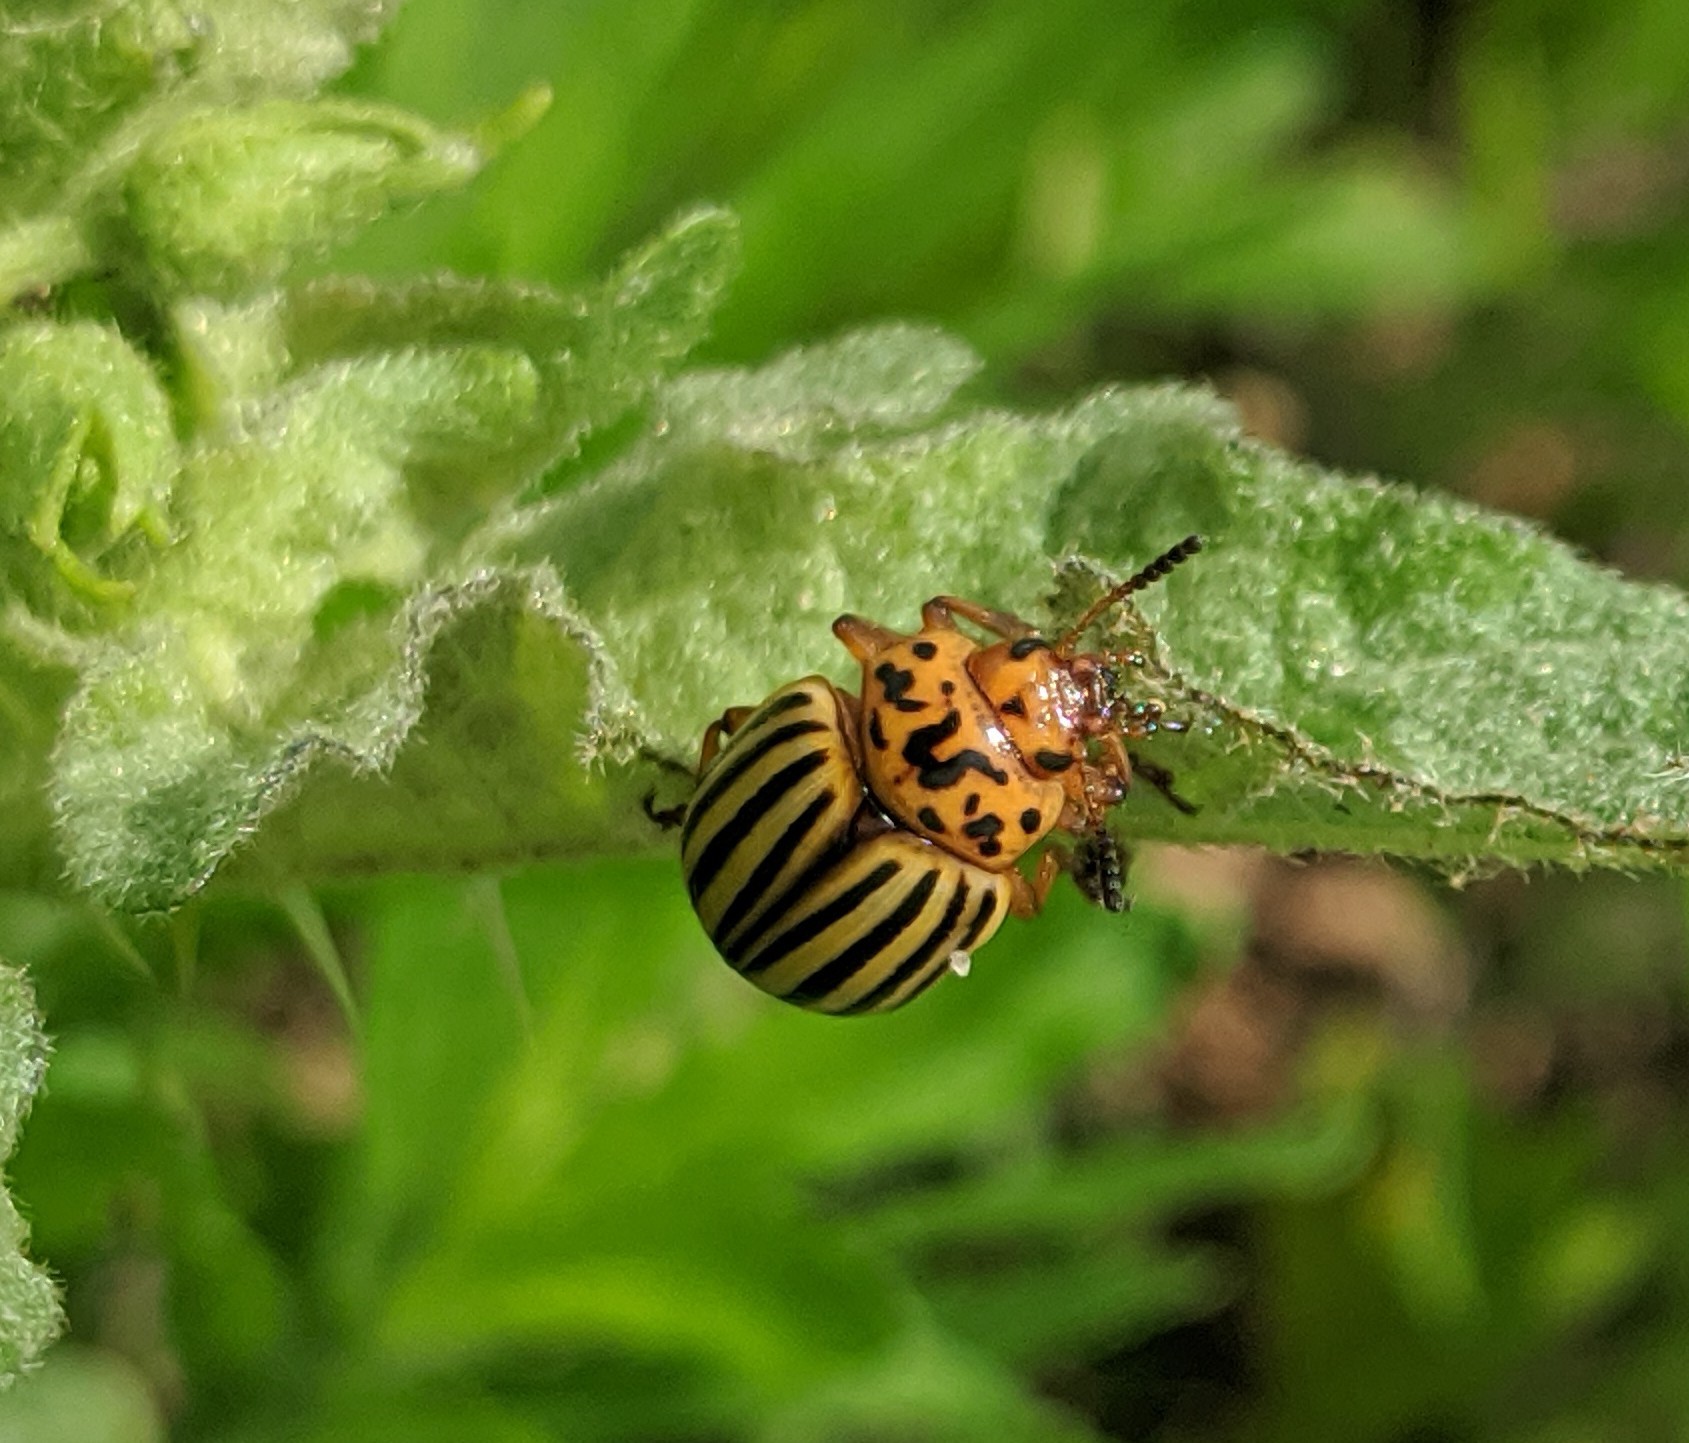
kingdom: Animalia
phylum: Arthropoda
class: Insecta
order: Coleoptera
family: Chrysomelidae
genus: Leptinotarsa
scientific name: Leptinotarsa decemlineata
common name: Colorado potato beetle
